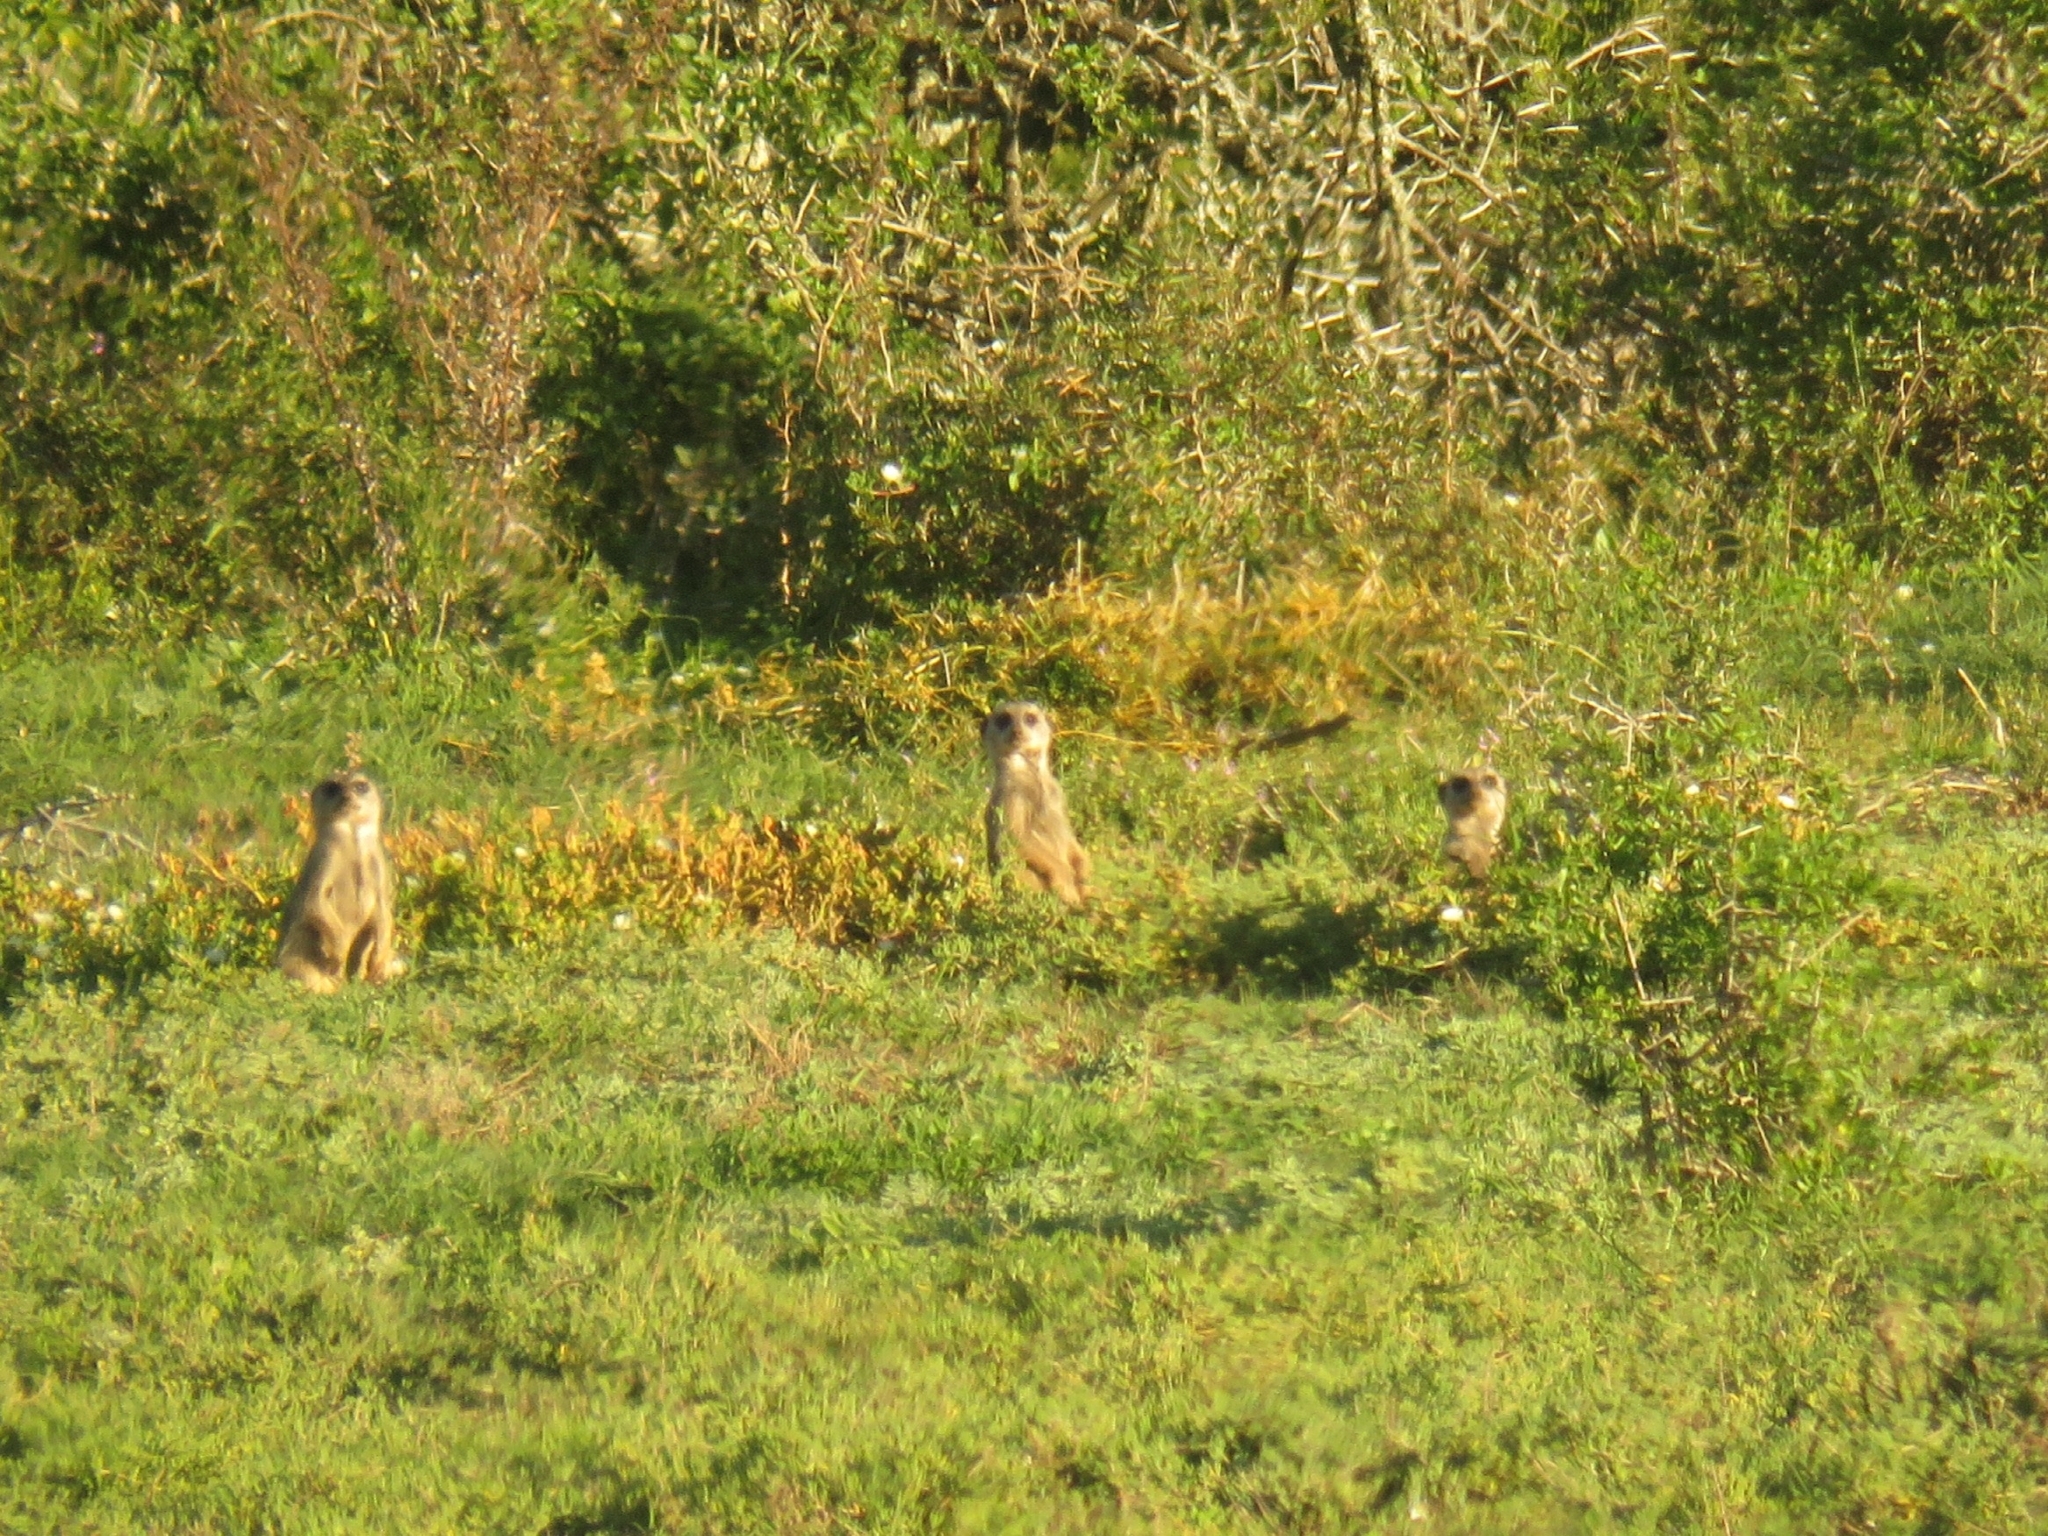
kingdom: Animalia
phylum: Chordata
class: Mammalia
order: Carnivora
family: Herpestidae
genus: Suricata
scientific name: Suricata suricatta
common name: Meerkat
